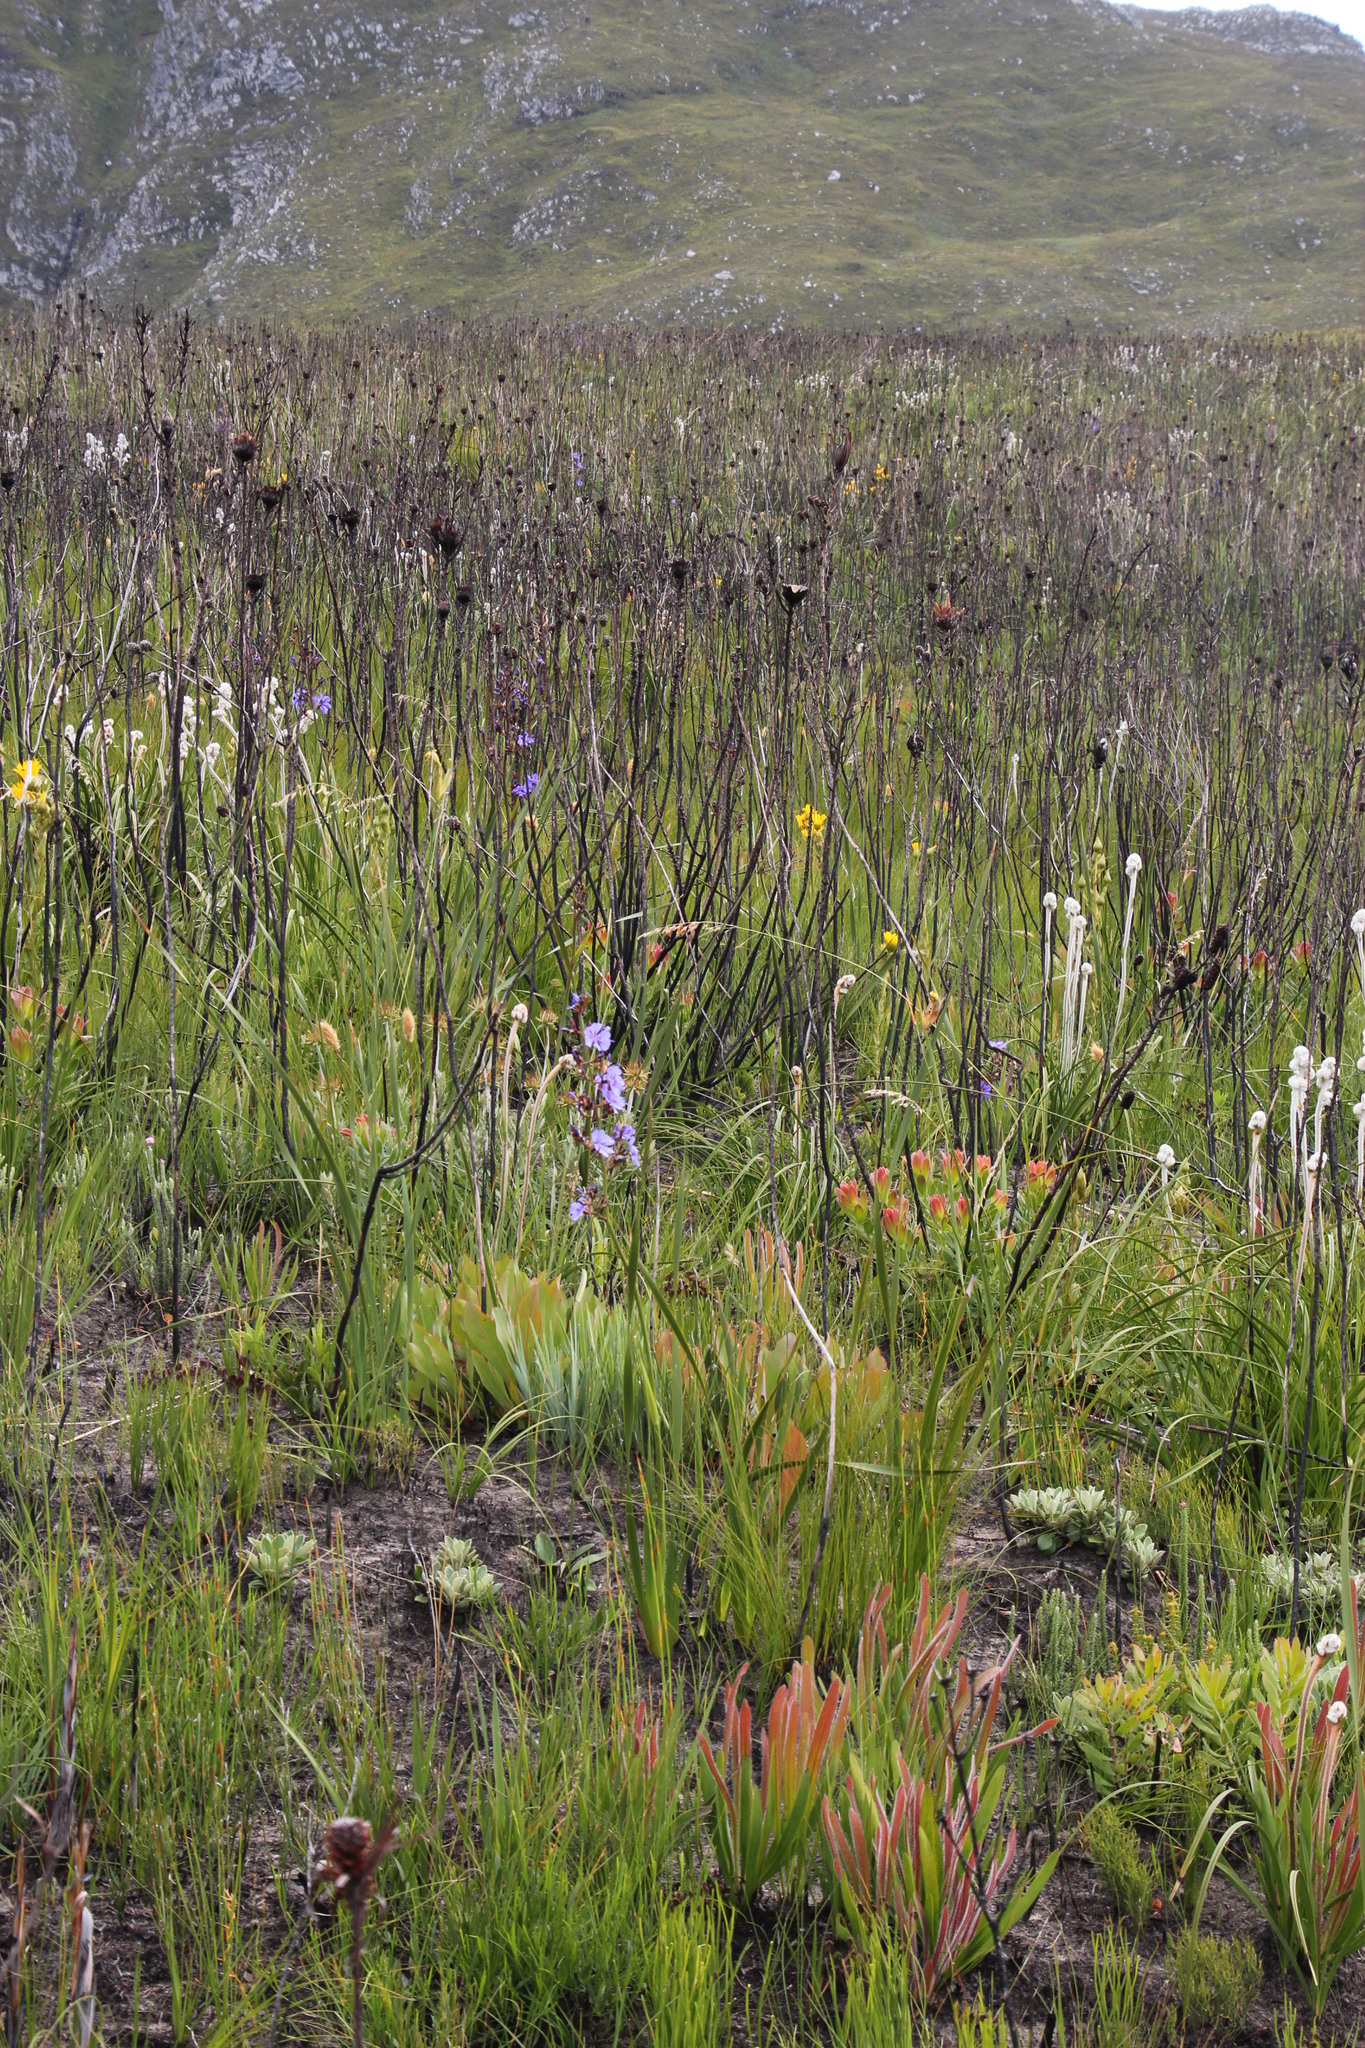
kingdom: Plantae
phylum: Tracheophyta
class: Liliopsida
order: Asparagales
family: Iridaceae
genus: Aristea
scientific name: Aristea bakeri
